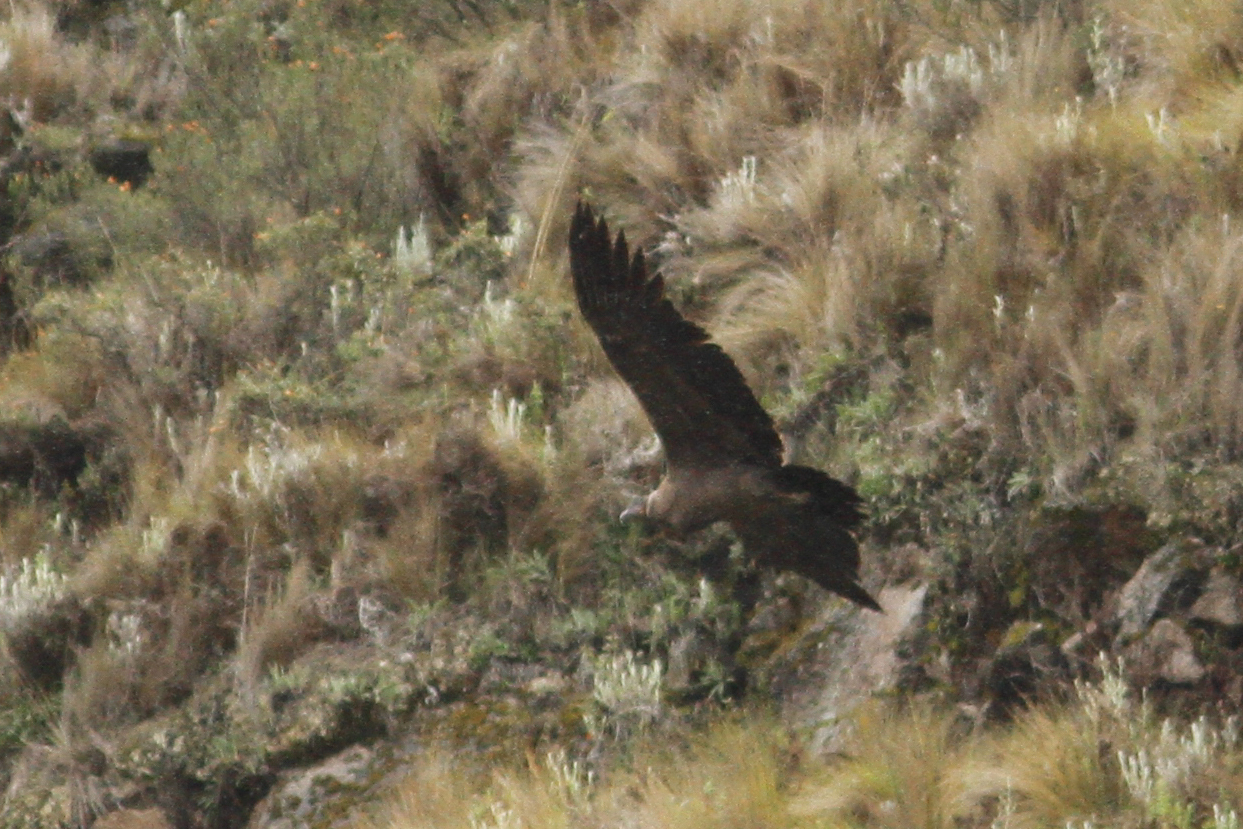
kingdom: Animalia
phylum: Chordata
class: Aves
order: Accipitriformes
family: Cathartidae
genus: Vultur
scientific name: Vultur gryphus
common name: Andean condor
